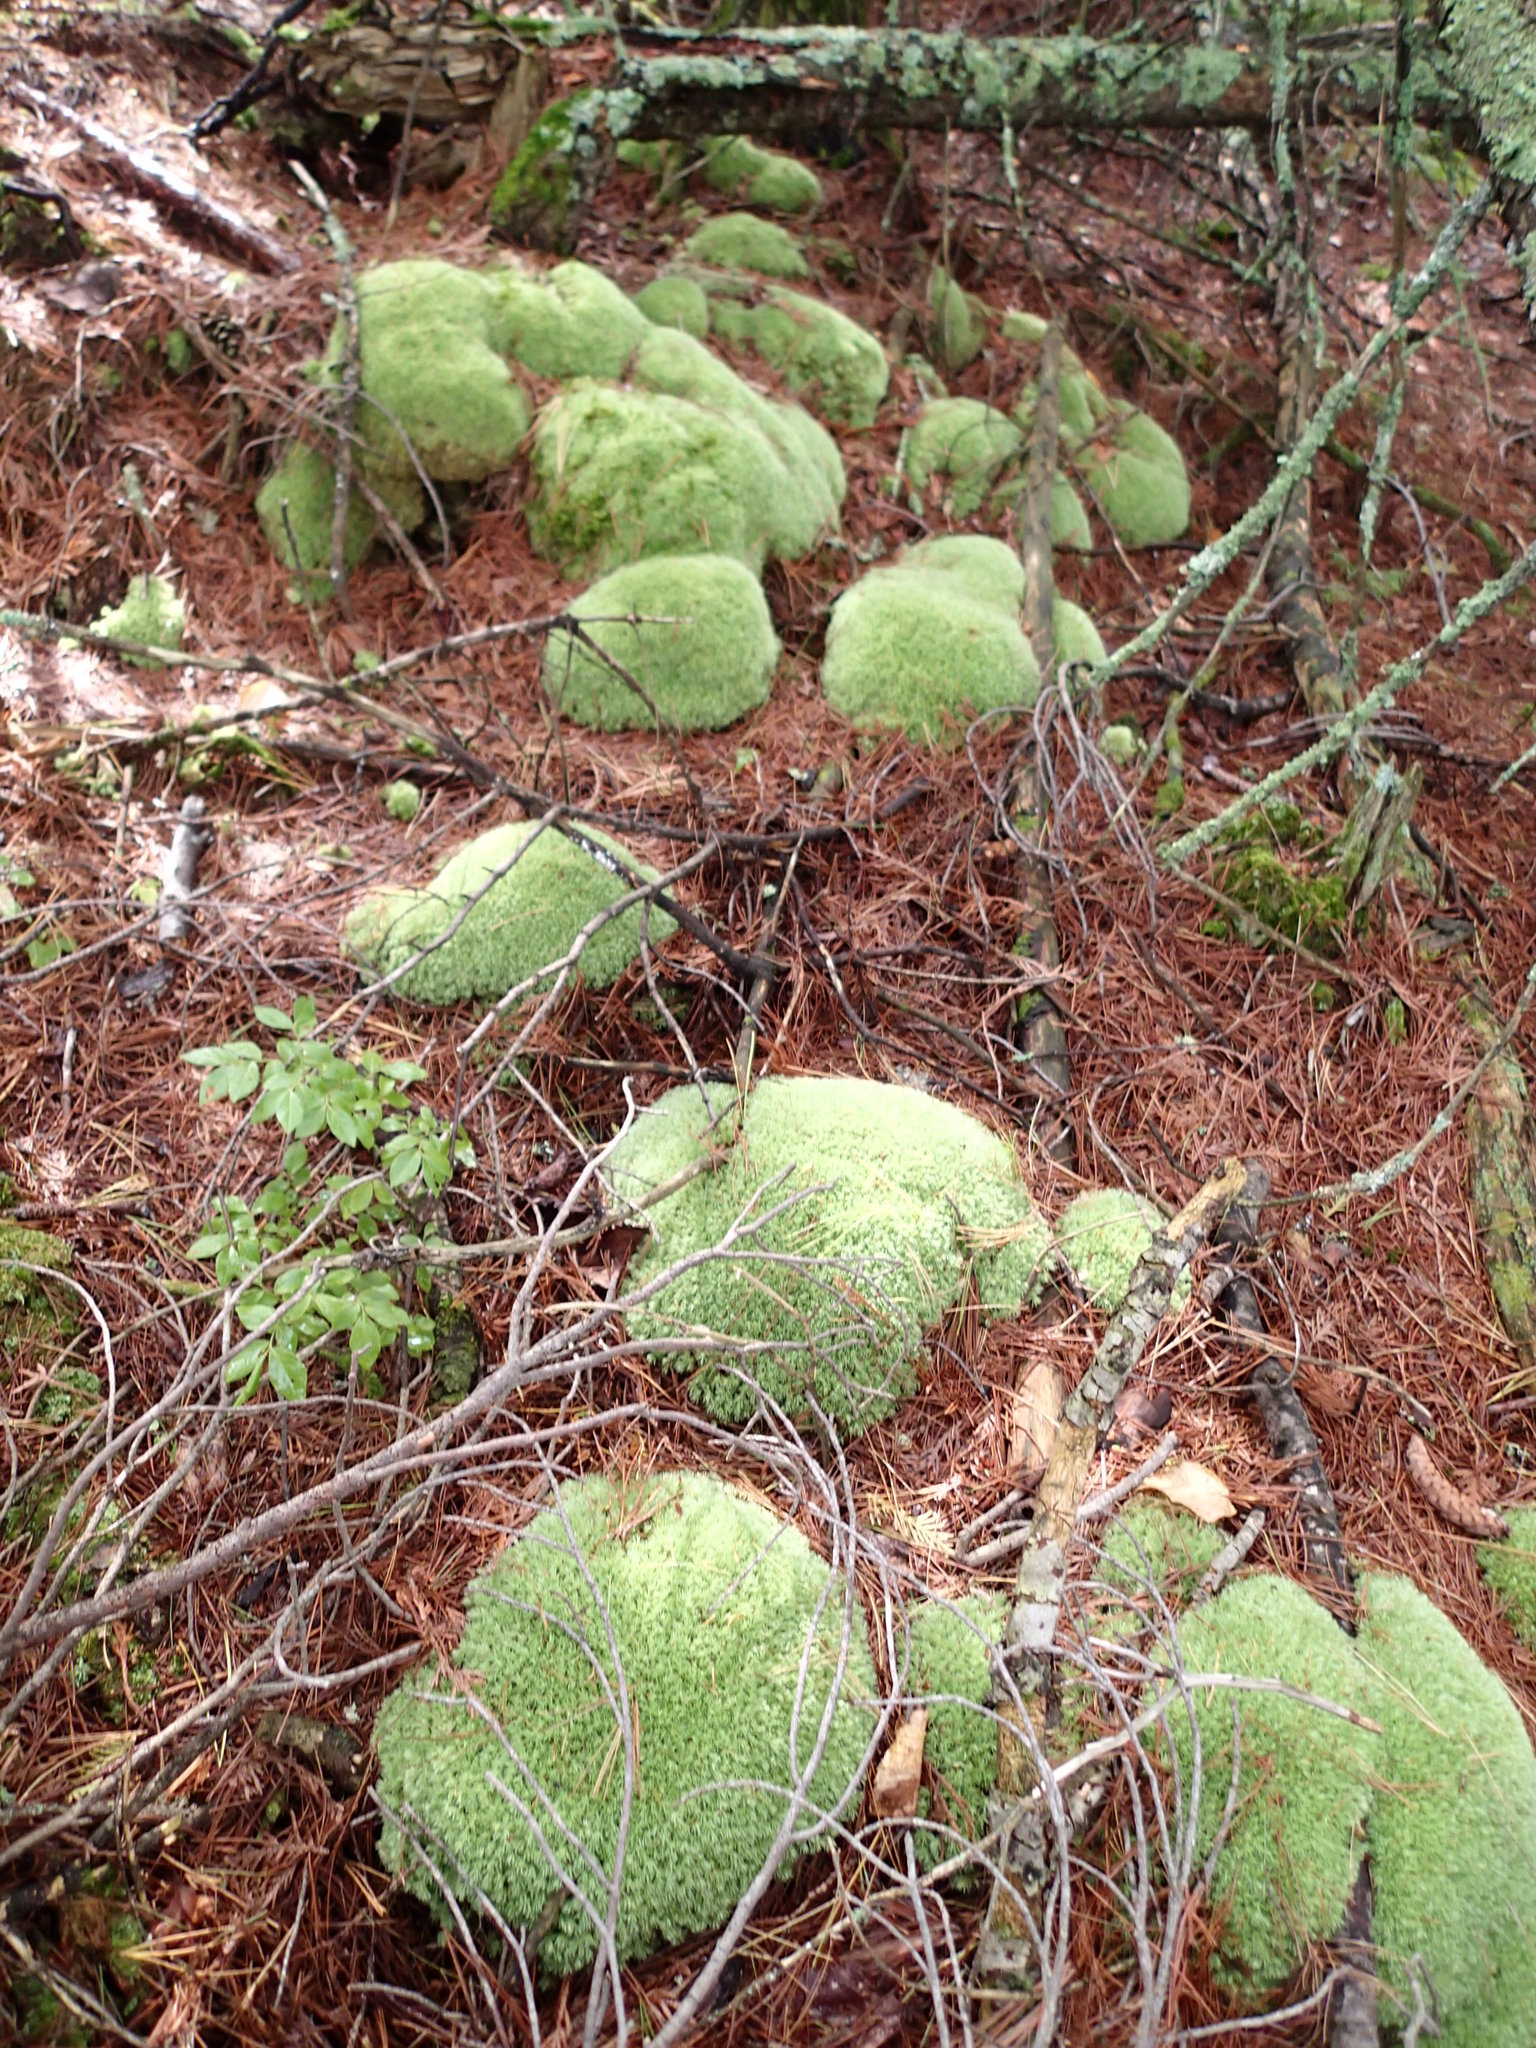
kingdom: Plantae
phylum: Bryophyta
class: Bryopsida
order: Dicranales
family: Leucobryaceae
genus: Leucobryum
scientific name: Leucobryum glaucum
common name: Large white-moss
